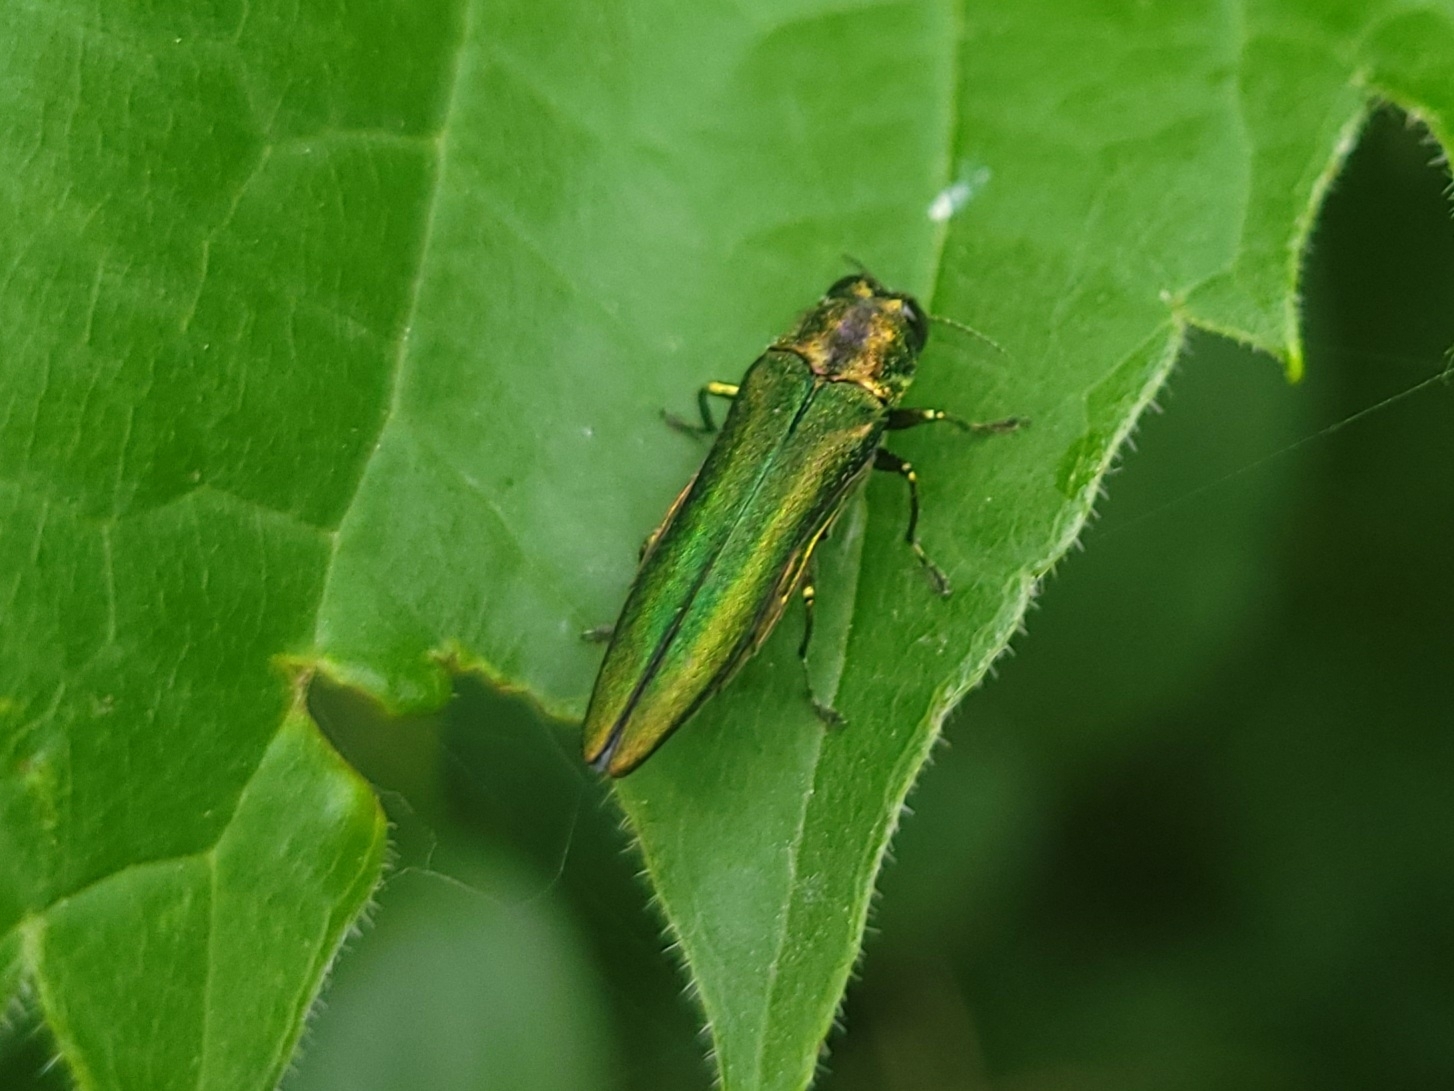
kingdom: Animalia
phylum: Arthropoda
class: Insecta
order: Coleoptera
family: Buprestidae
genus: Agrilus
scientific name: Agrilus planipennis
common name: Emerald ash borer
